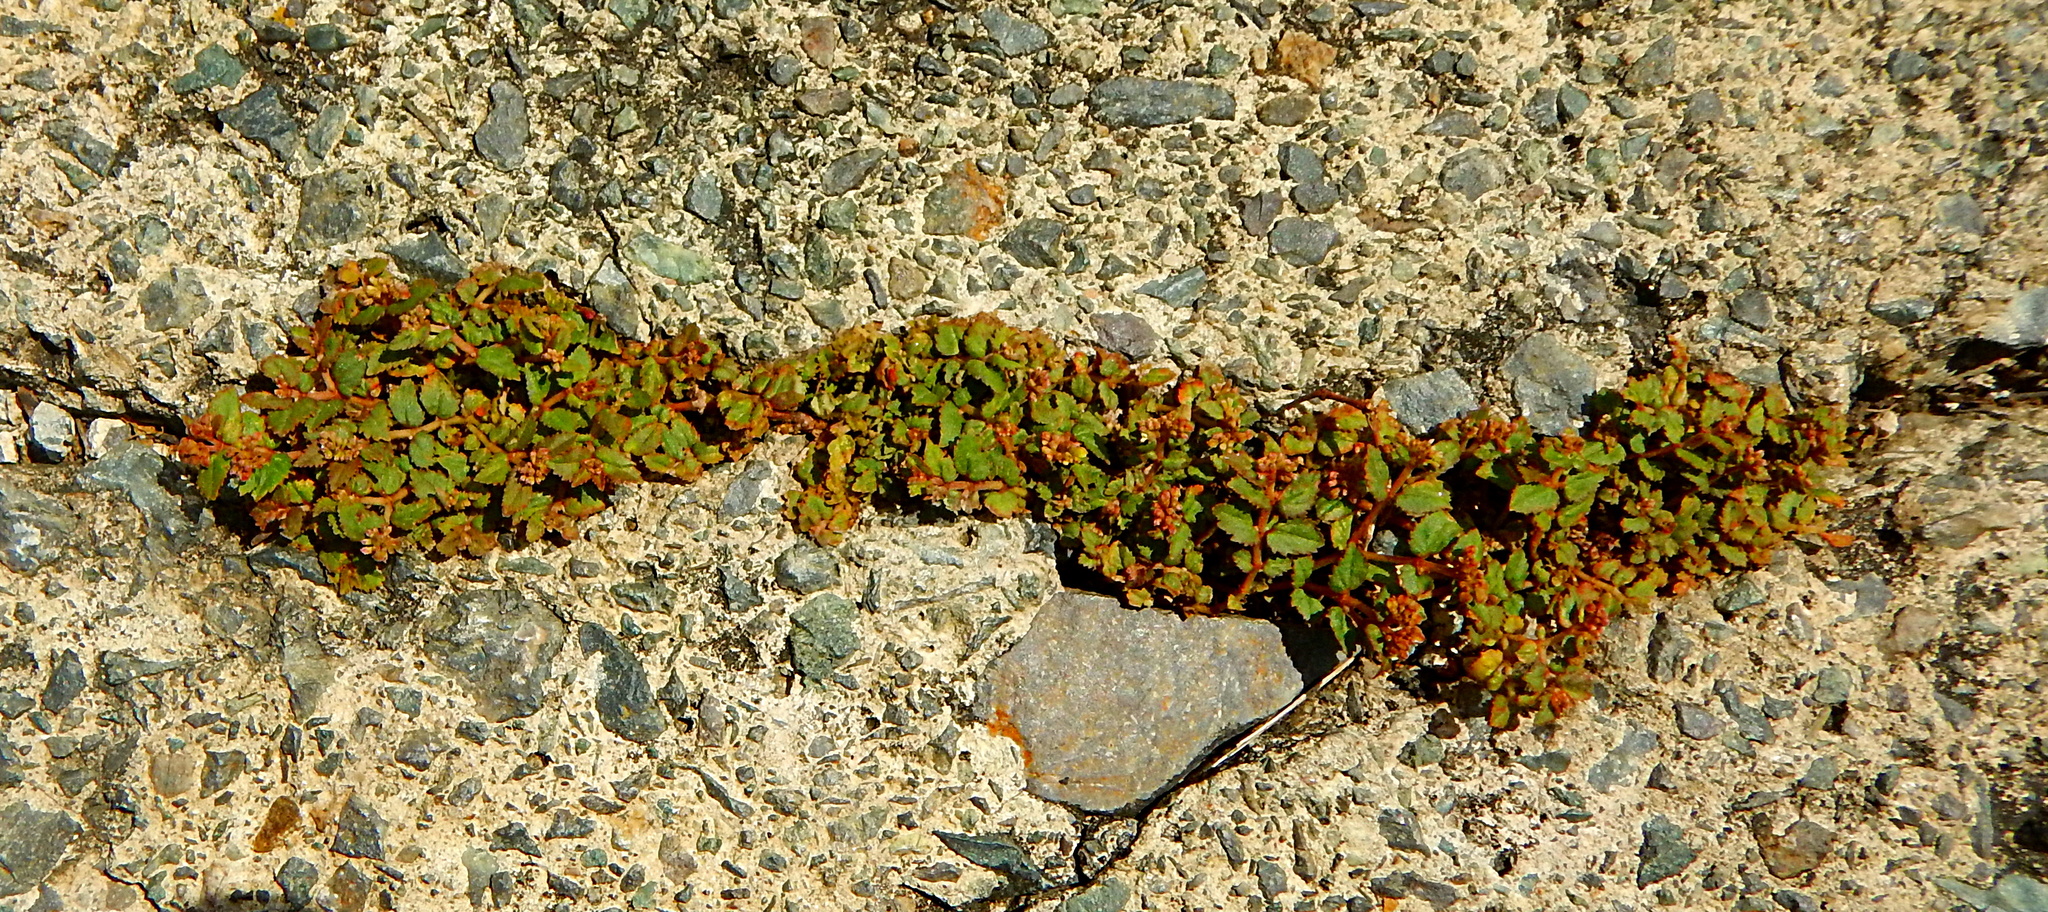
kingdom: Plantae
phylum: Tracheophyta
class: Magnoliopsida
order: Malpighiales
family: Euphorbiaceae
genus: Euphorbia
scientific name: Euphorbia ophthalmica
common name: Florida hammock sandmat
